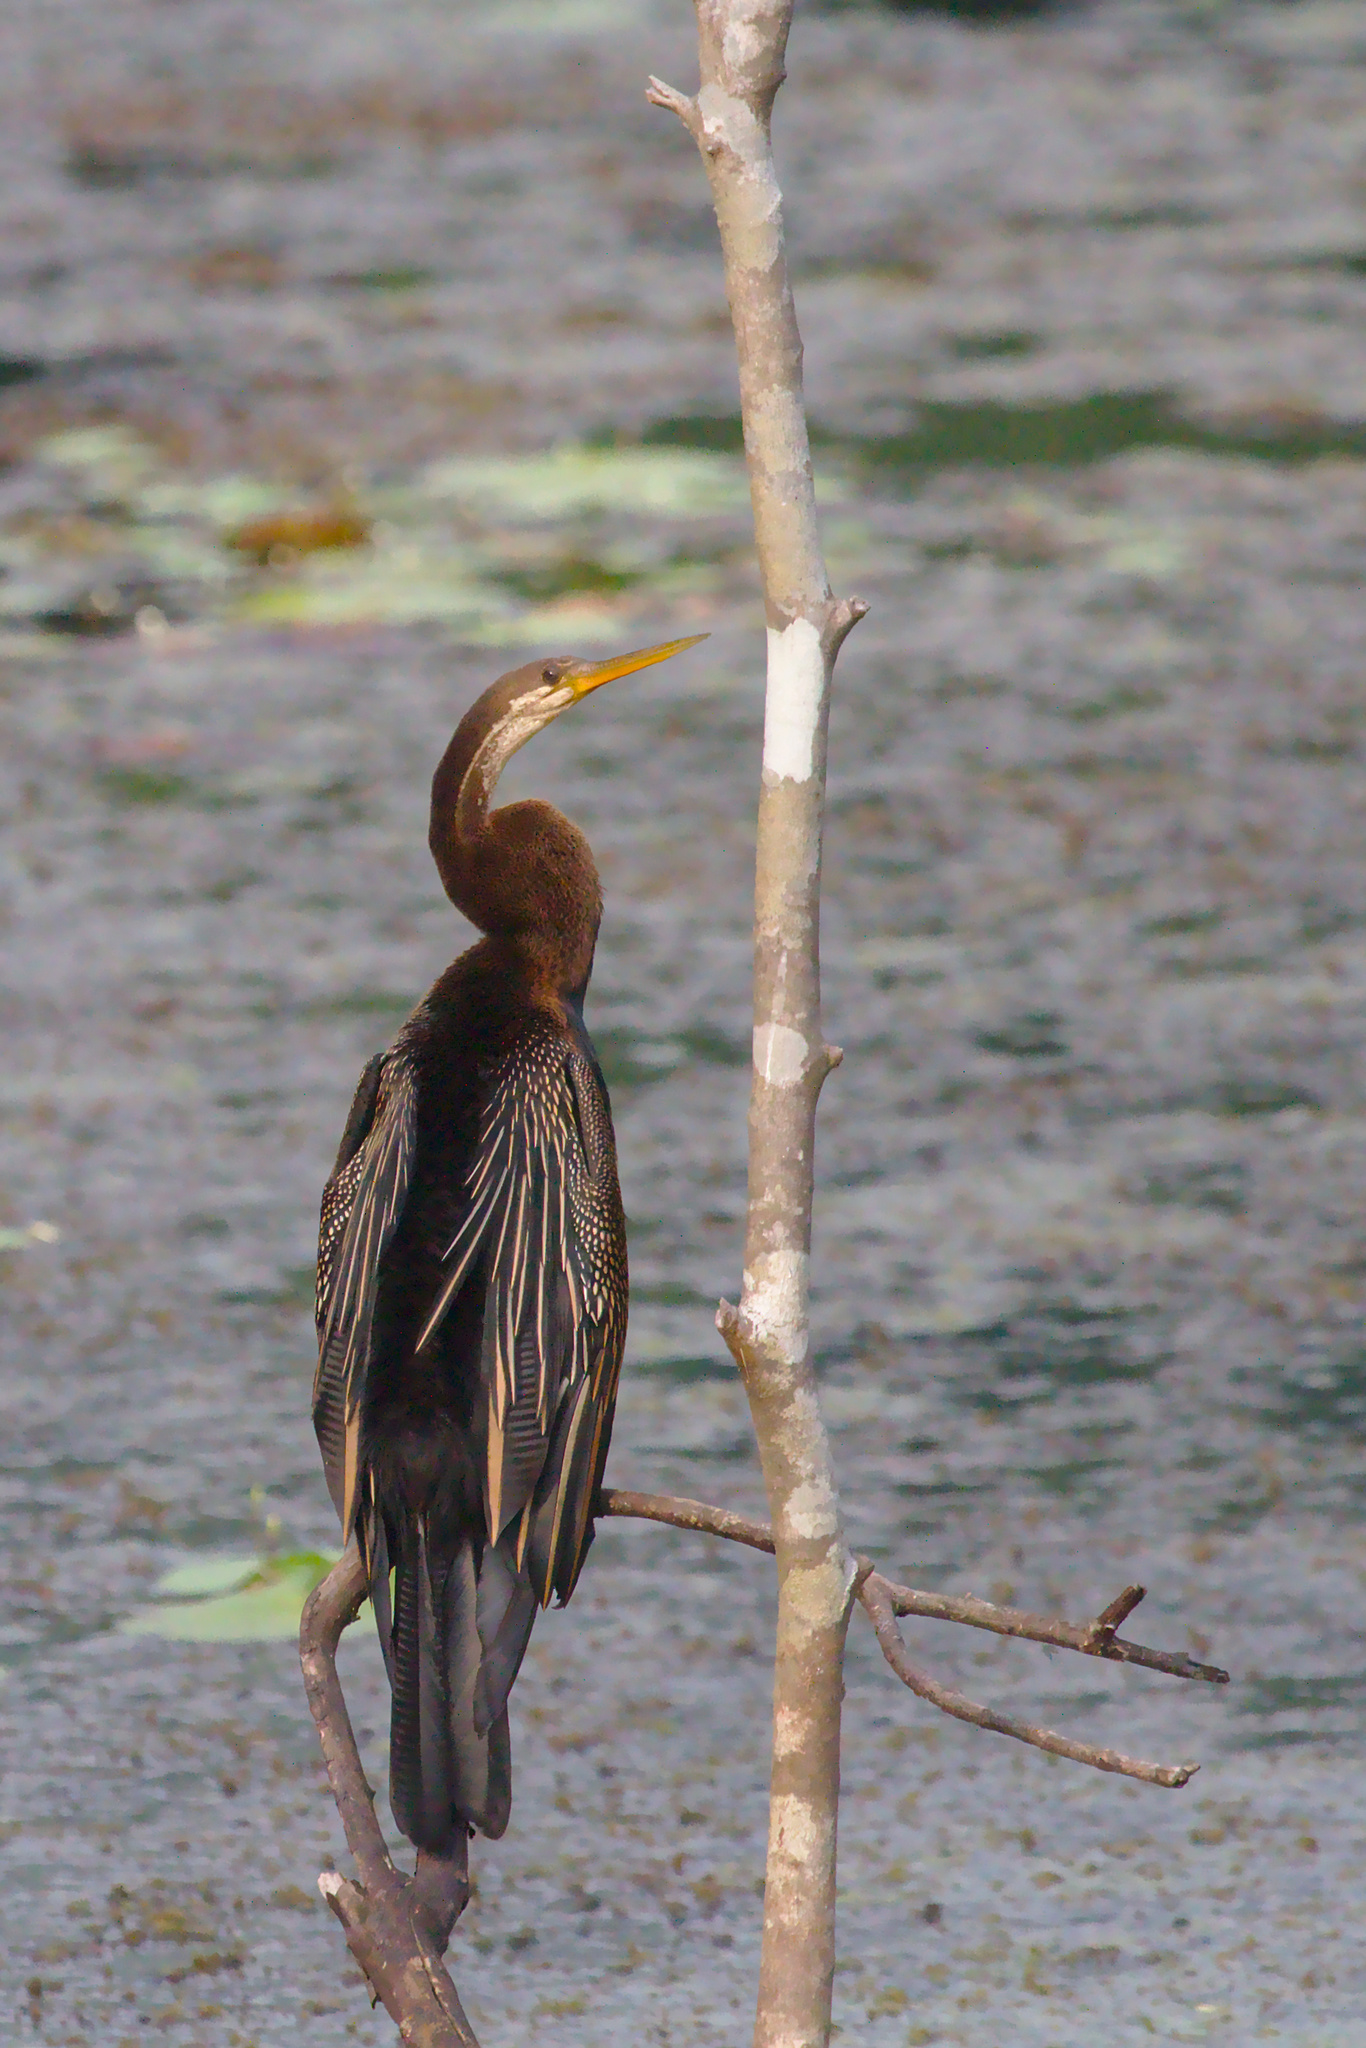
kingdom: Animalia
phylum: Chordata
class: Aves
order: Suliformes
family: Anhingidae
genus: Anhinga
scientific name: Anhinga melanogaster
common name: Oriental darter
